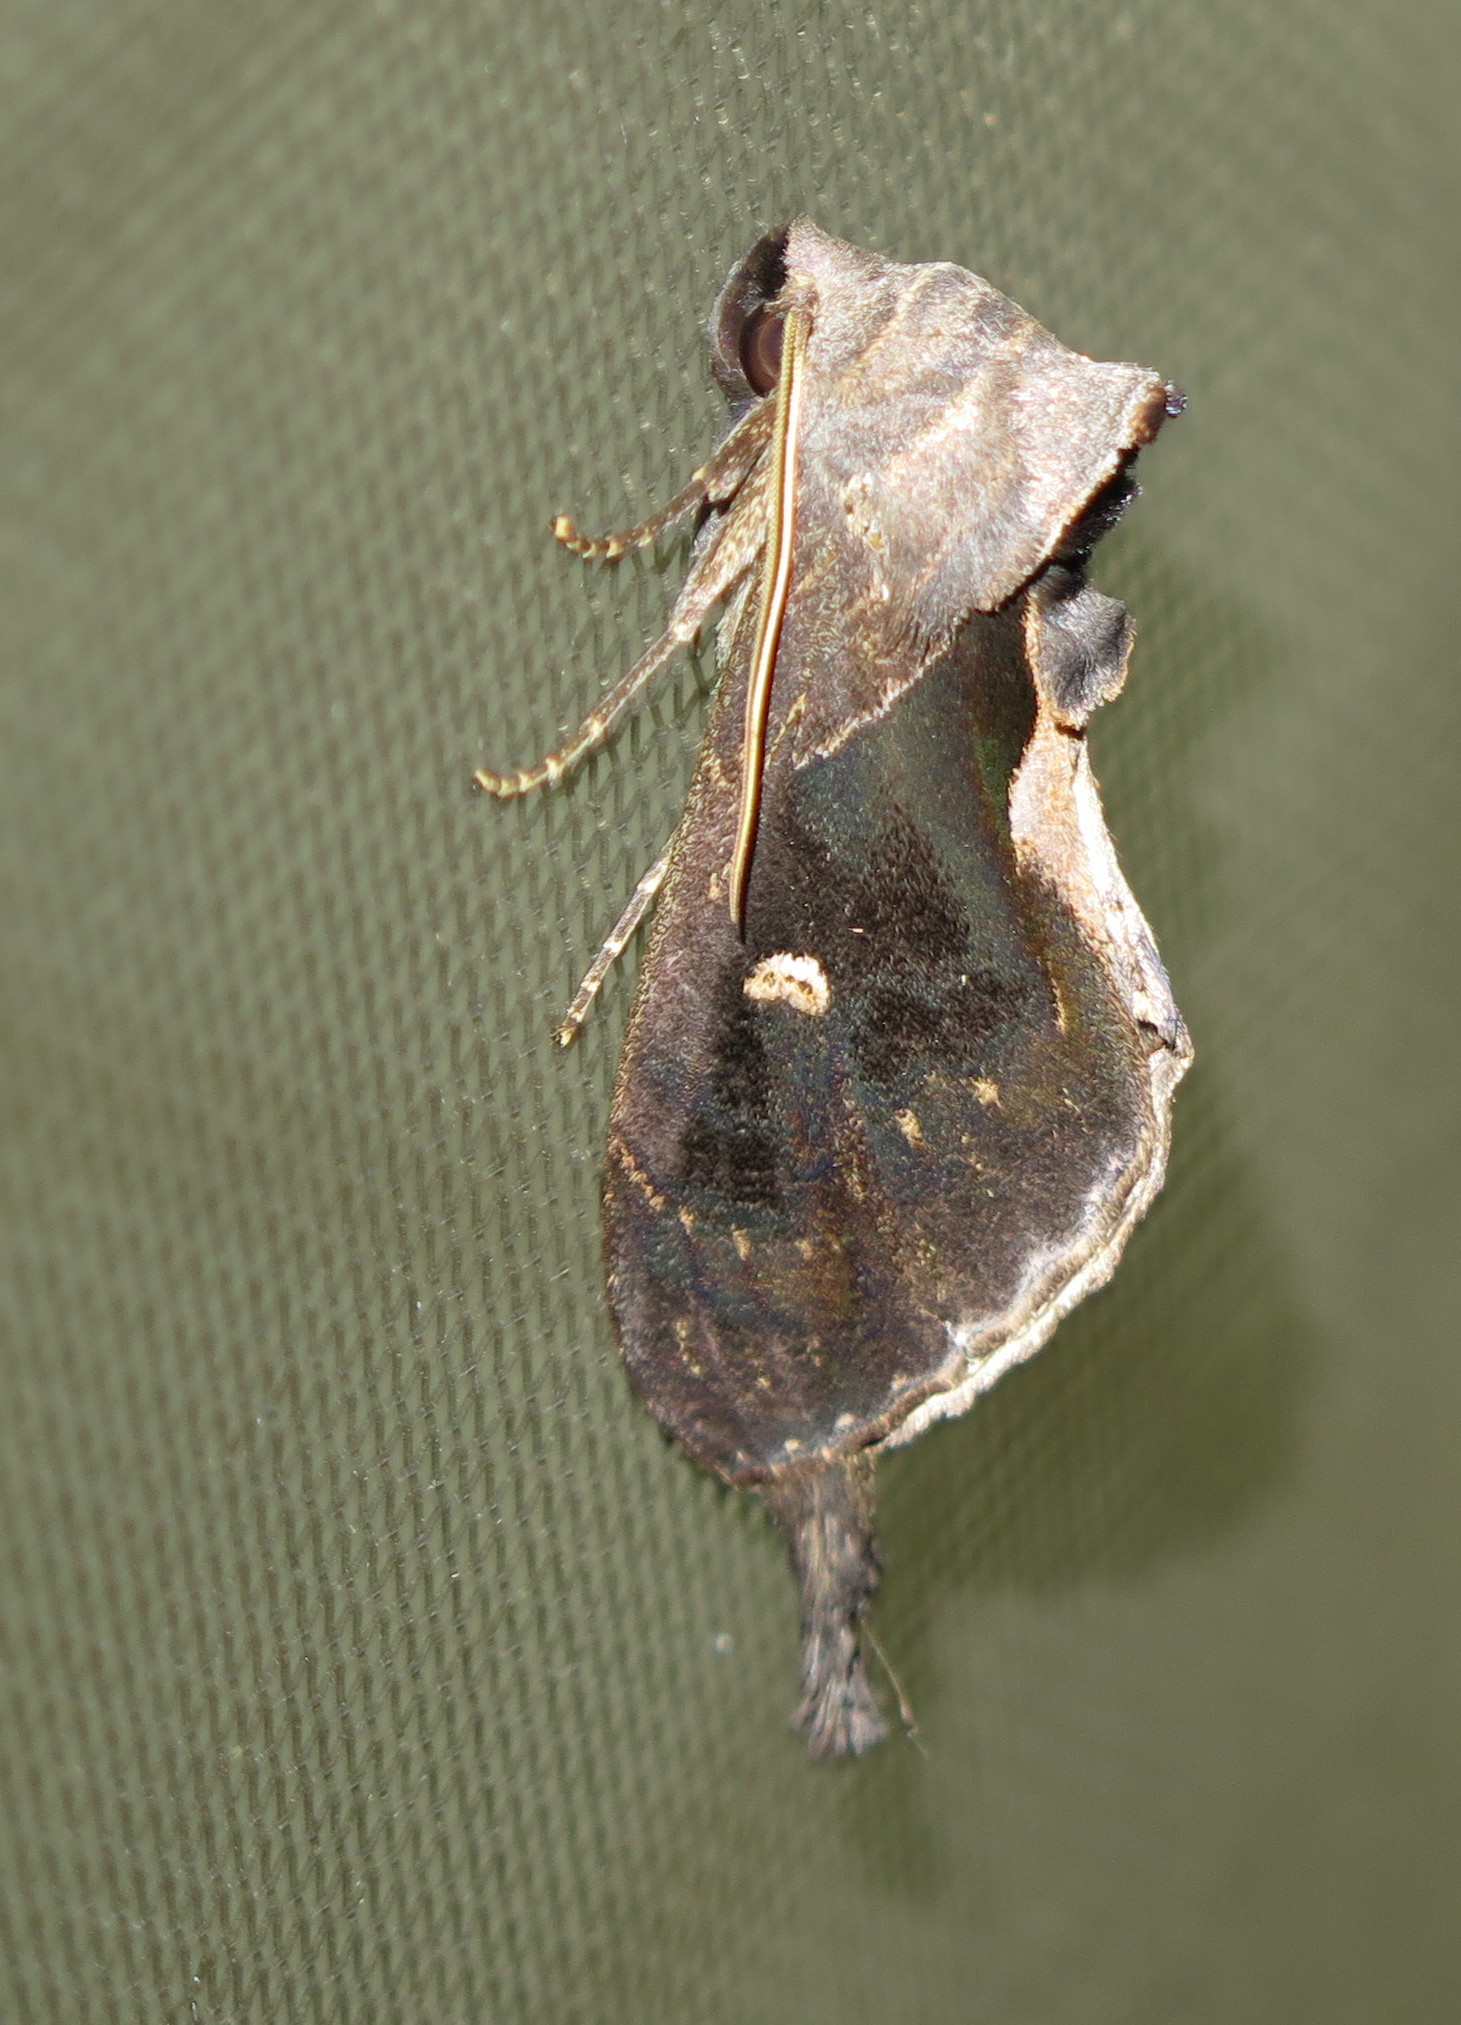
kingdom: Animalia
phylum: Arthropoda
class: Insecta
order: Lepidoptera
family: Notodontidae
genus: Crinodes
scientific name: Crinodes besckei
